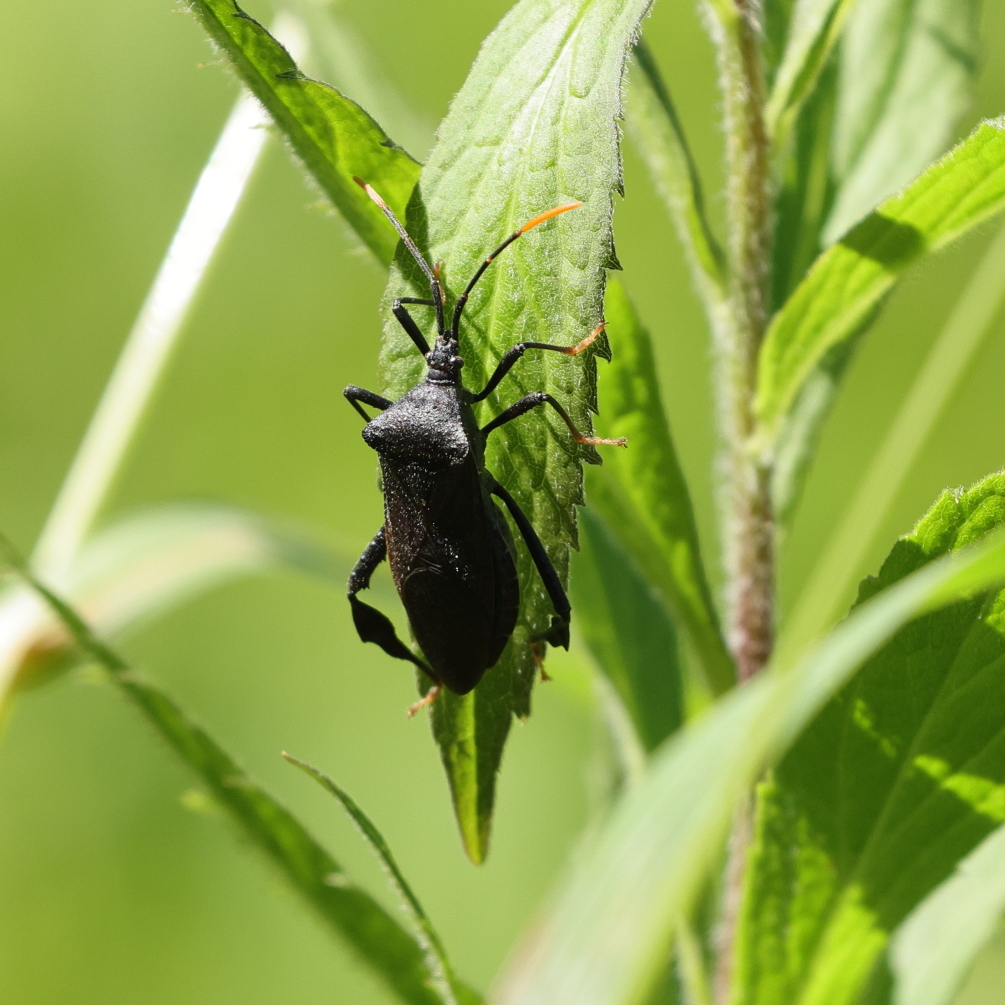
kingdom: Animalia
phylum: Arthropoda
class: Insecta
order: Hemiptera
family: Coreidae
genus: Acanthocephala
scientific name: Acanthocephala terminalis
